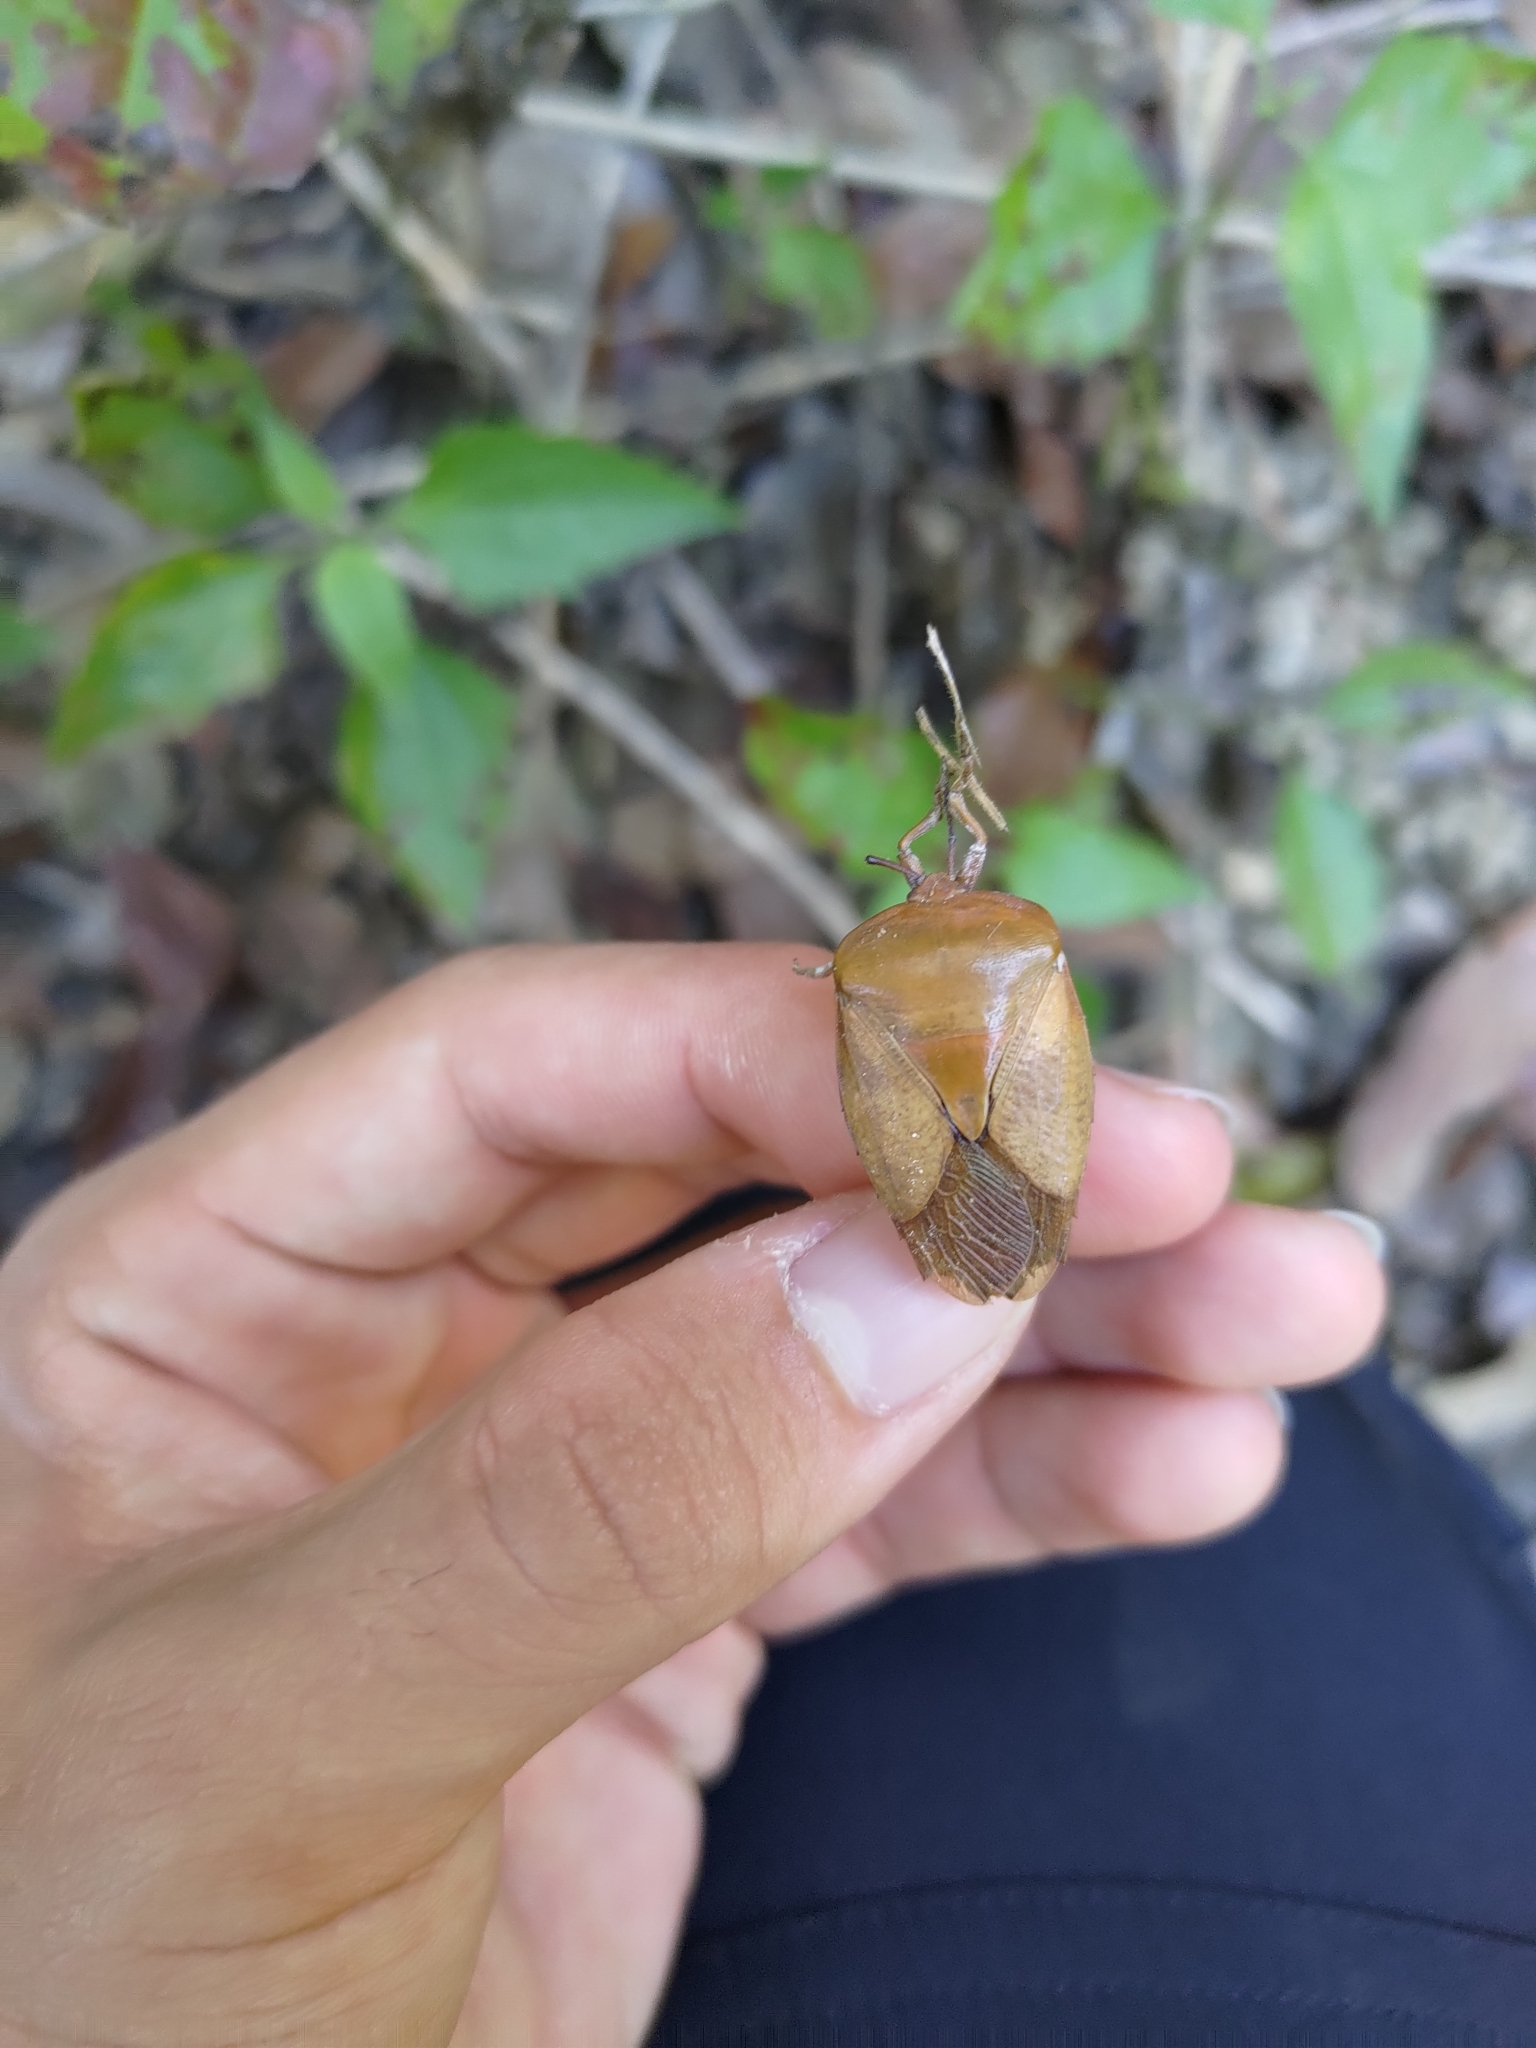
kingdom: Animalia
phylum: Arthropoda
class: Insecta
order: Hemiptera
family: Tessaratomidae
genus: Tessaratoma
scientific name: Tessaratoma papillosa
